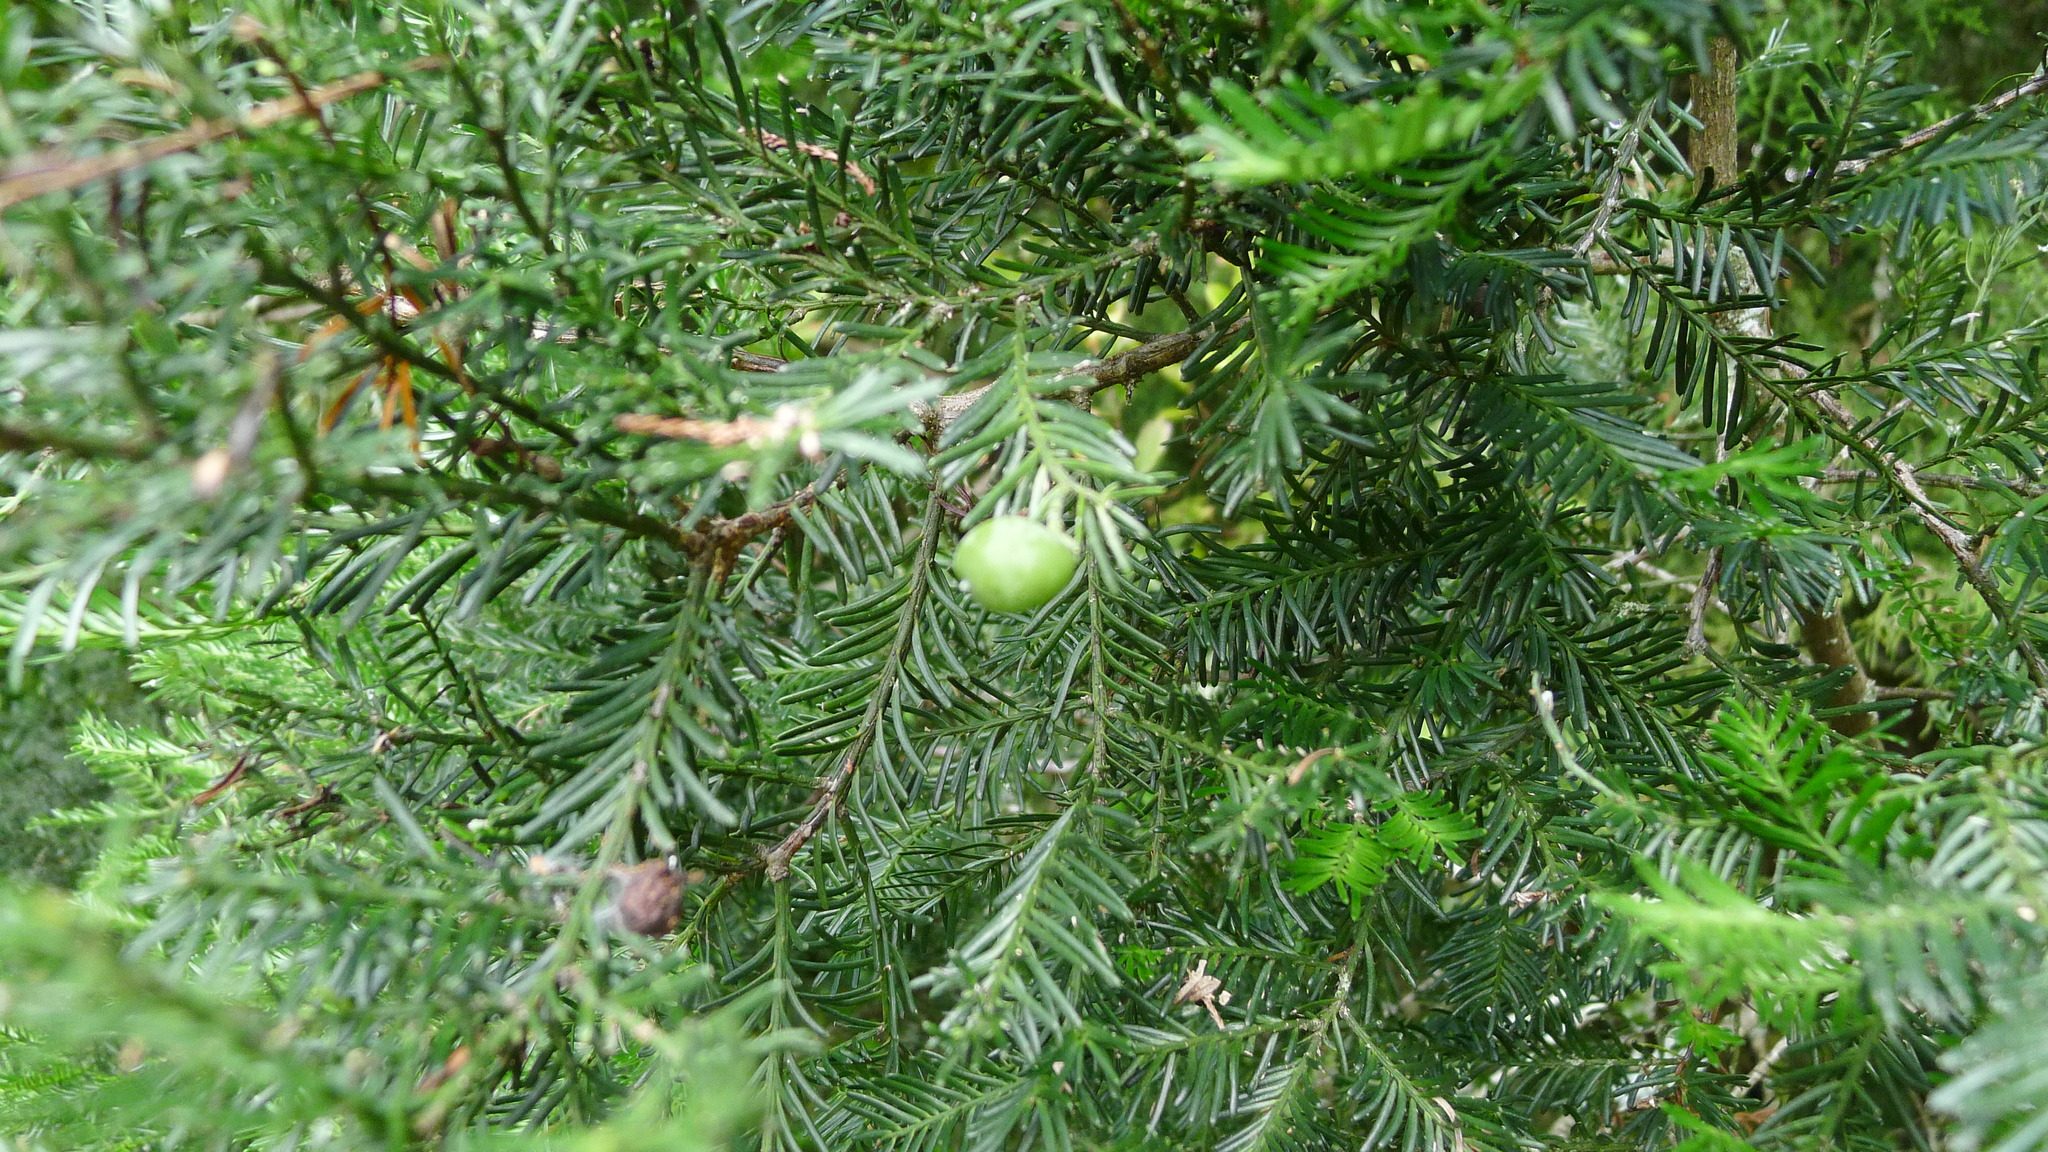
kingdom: Plantae
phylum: Tracheophyta
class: Pinopsida
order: Pinales
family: Podocarpaceae
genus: Prumnopitys
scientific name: Prumnopitys taxifolia
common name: Matai
